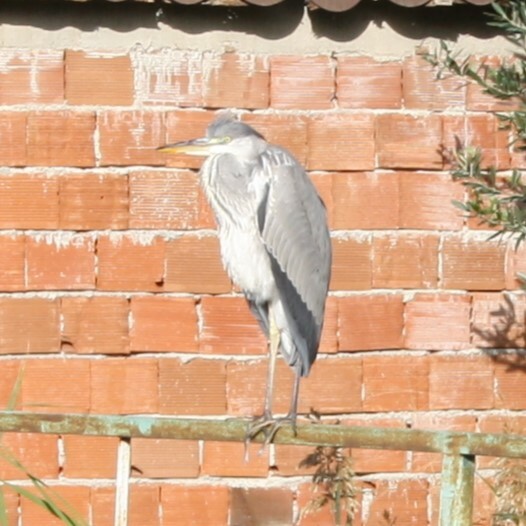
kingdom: Animalia
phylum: Chordata
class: Aves
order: Pelecaniformes
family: Ardeidae
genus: Ardea
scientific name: Ardea cinerea
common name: Grey heron
